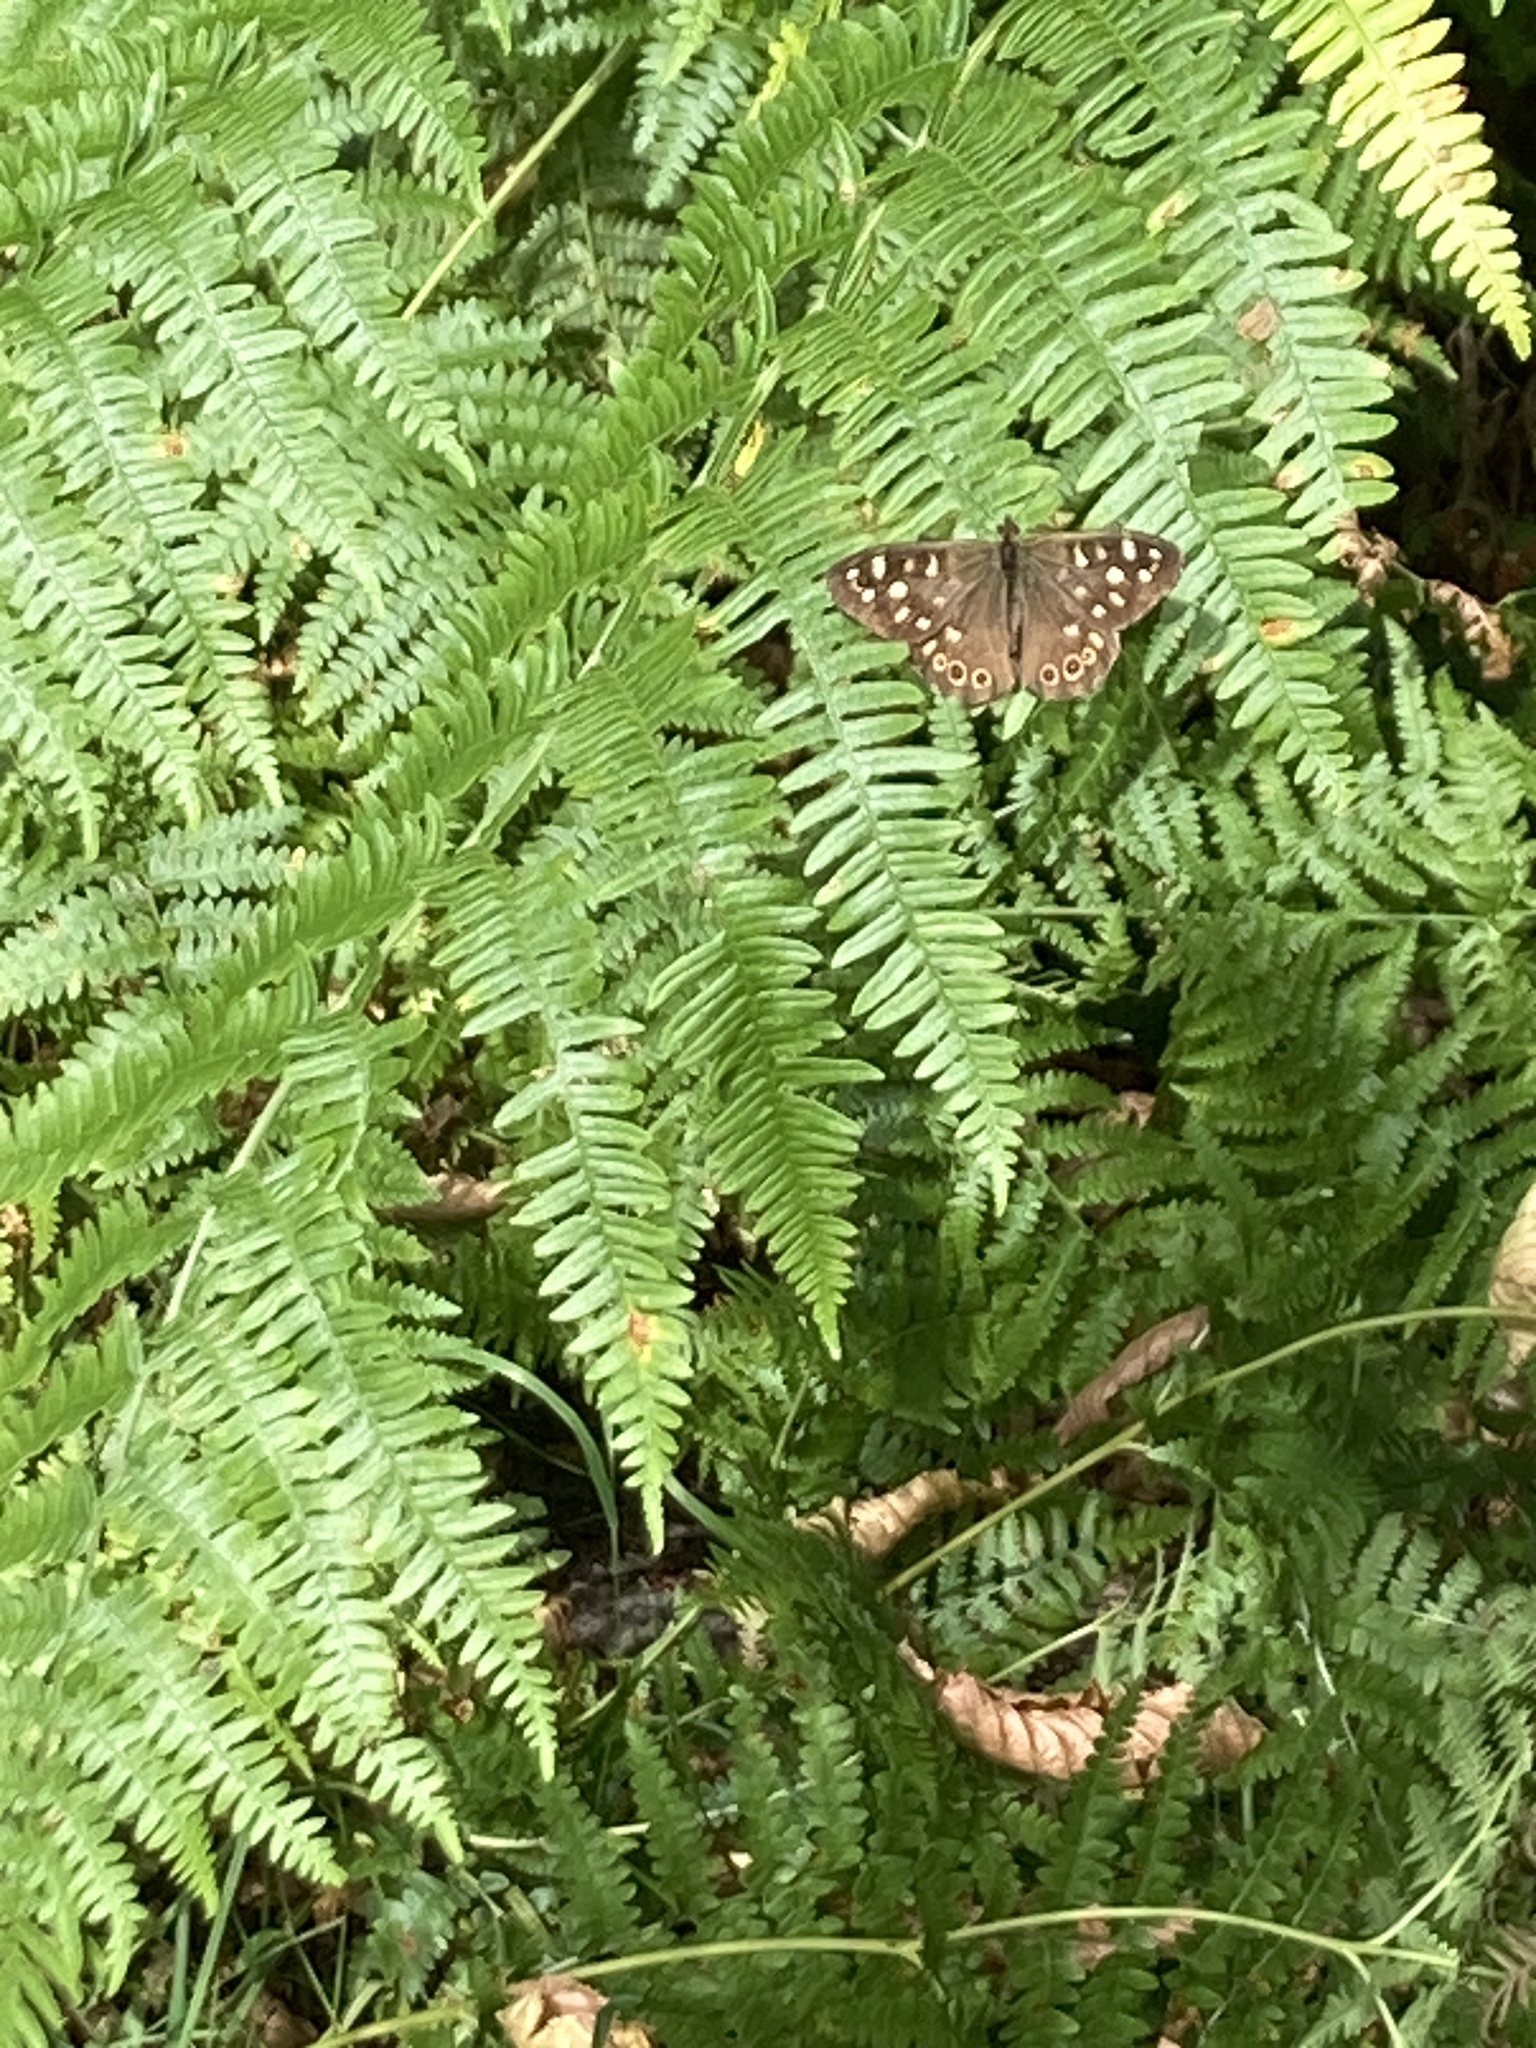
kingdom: Animalia
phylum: Arthropoda
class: Insecta
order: Lepidoptera
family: Nymphalidae
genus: Pararge
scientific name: Pararge aegeria
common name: Speckled wood
